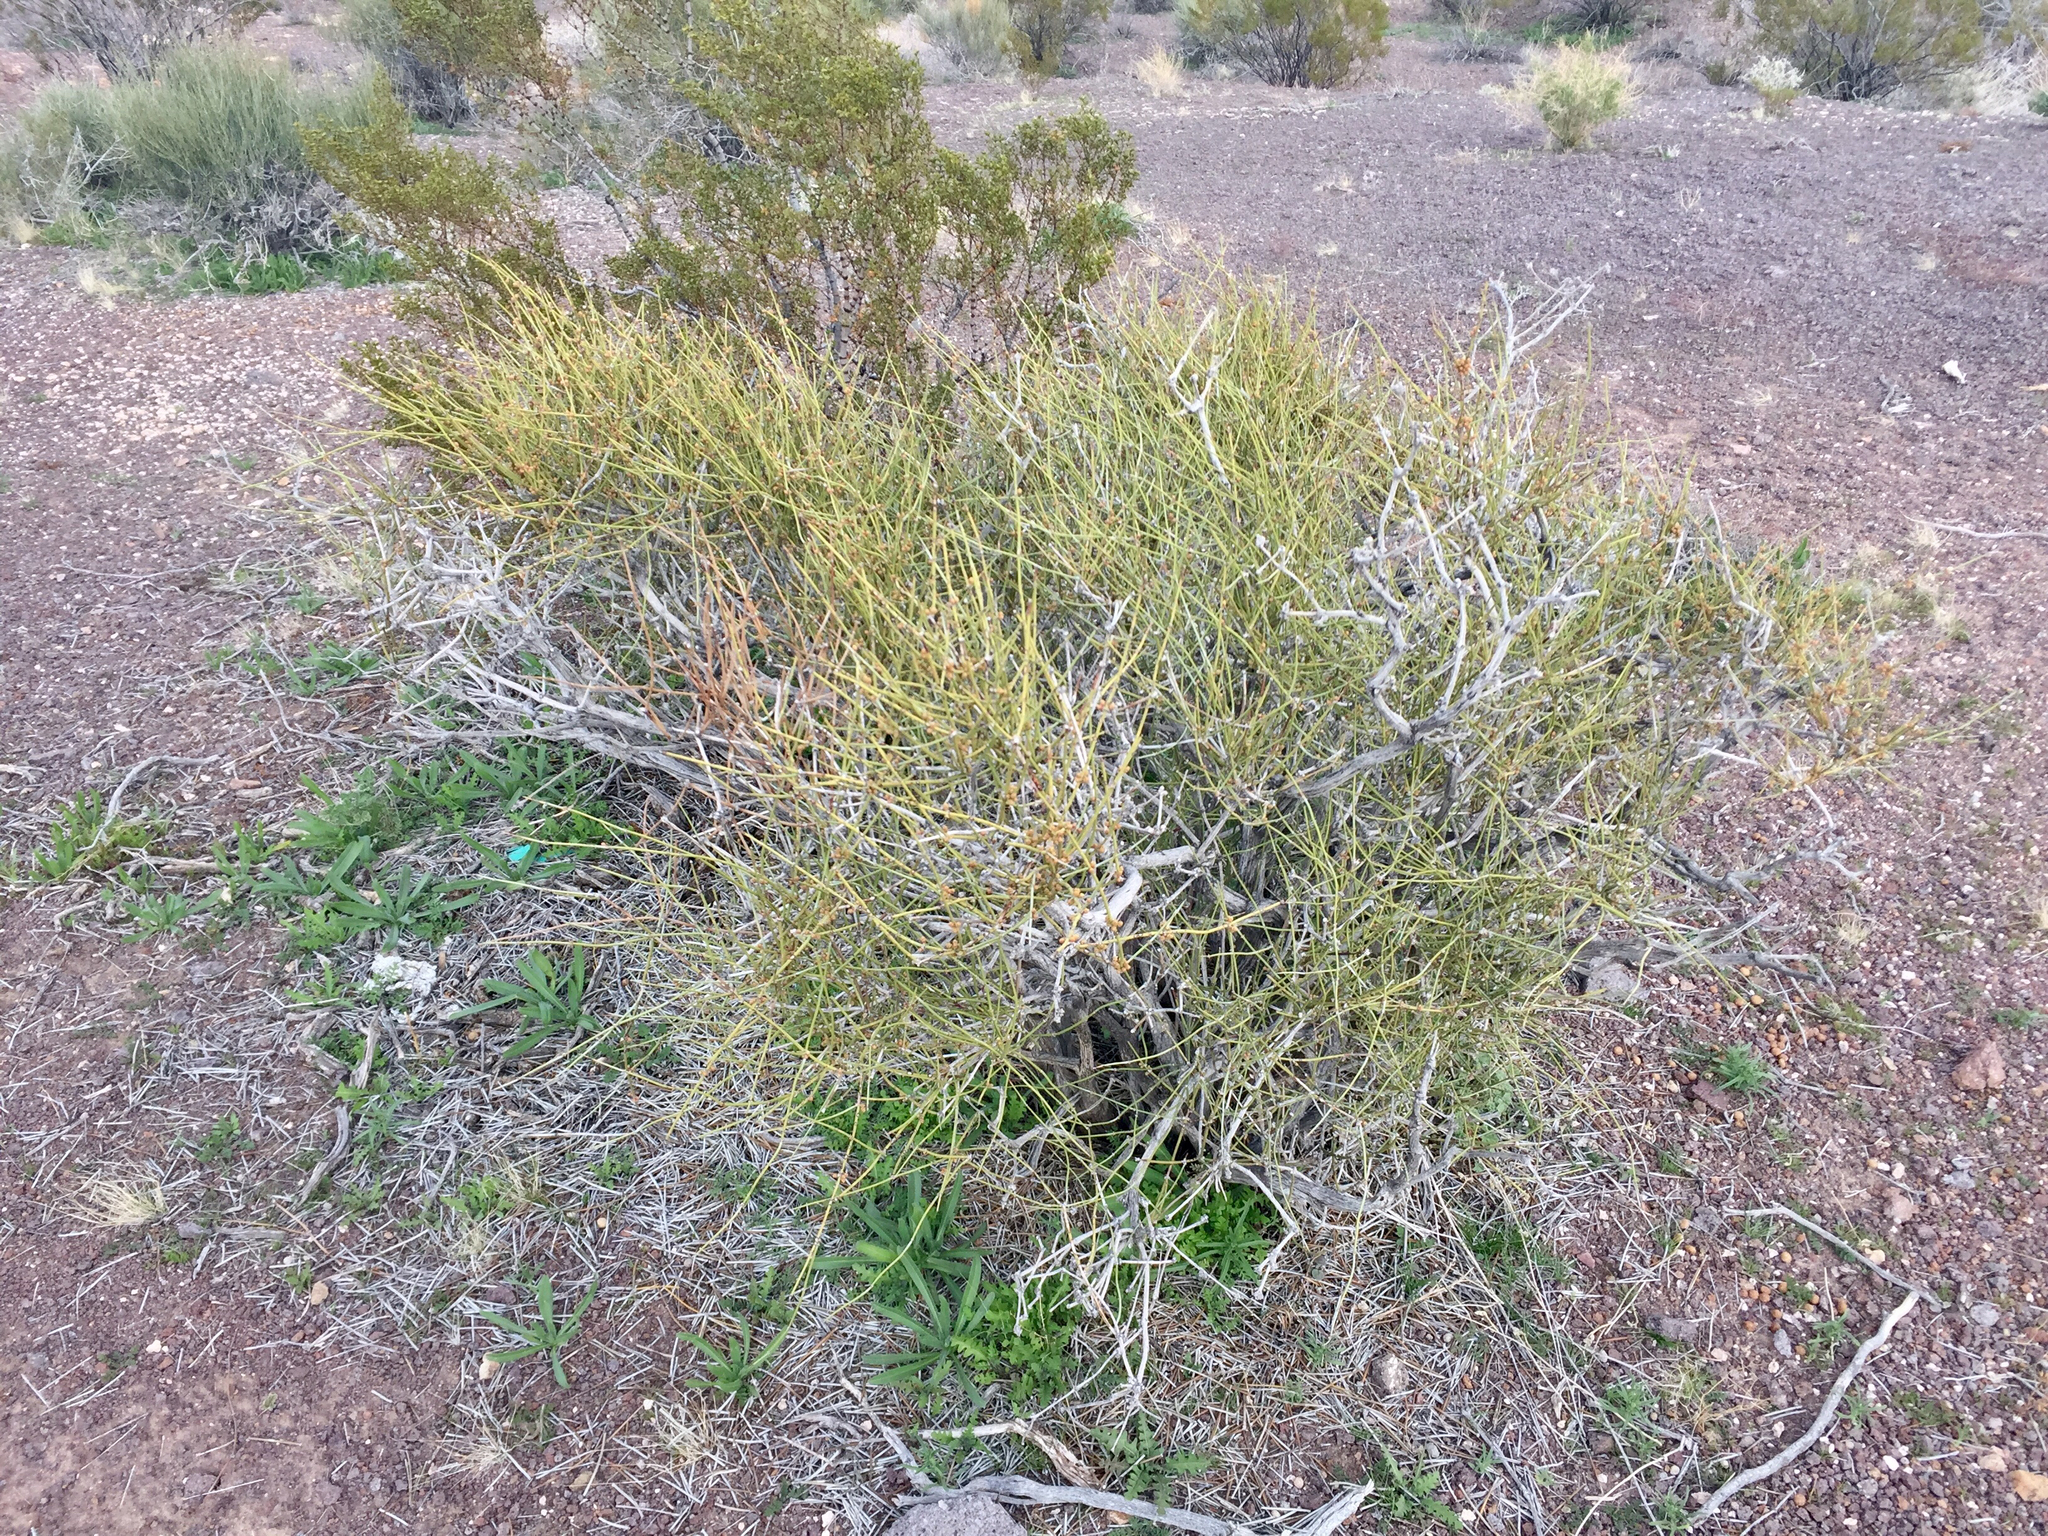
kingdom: Plantae
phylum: Tracheophyta
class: Gnetopsida
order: Ephedrales
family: Ephedraceae
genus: Ephedra
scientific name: Ephedra nevadensis
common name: Gray ephedra
